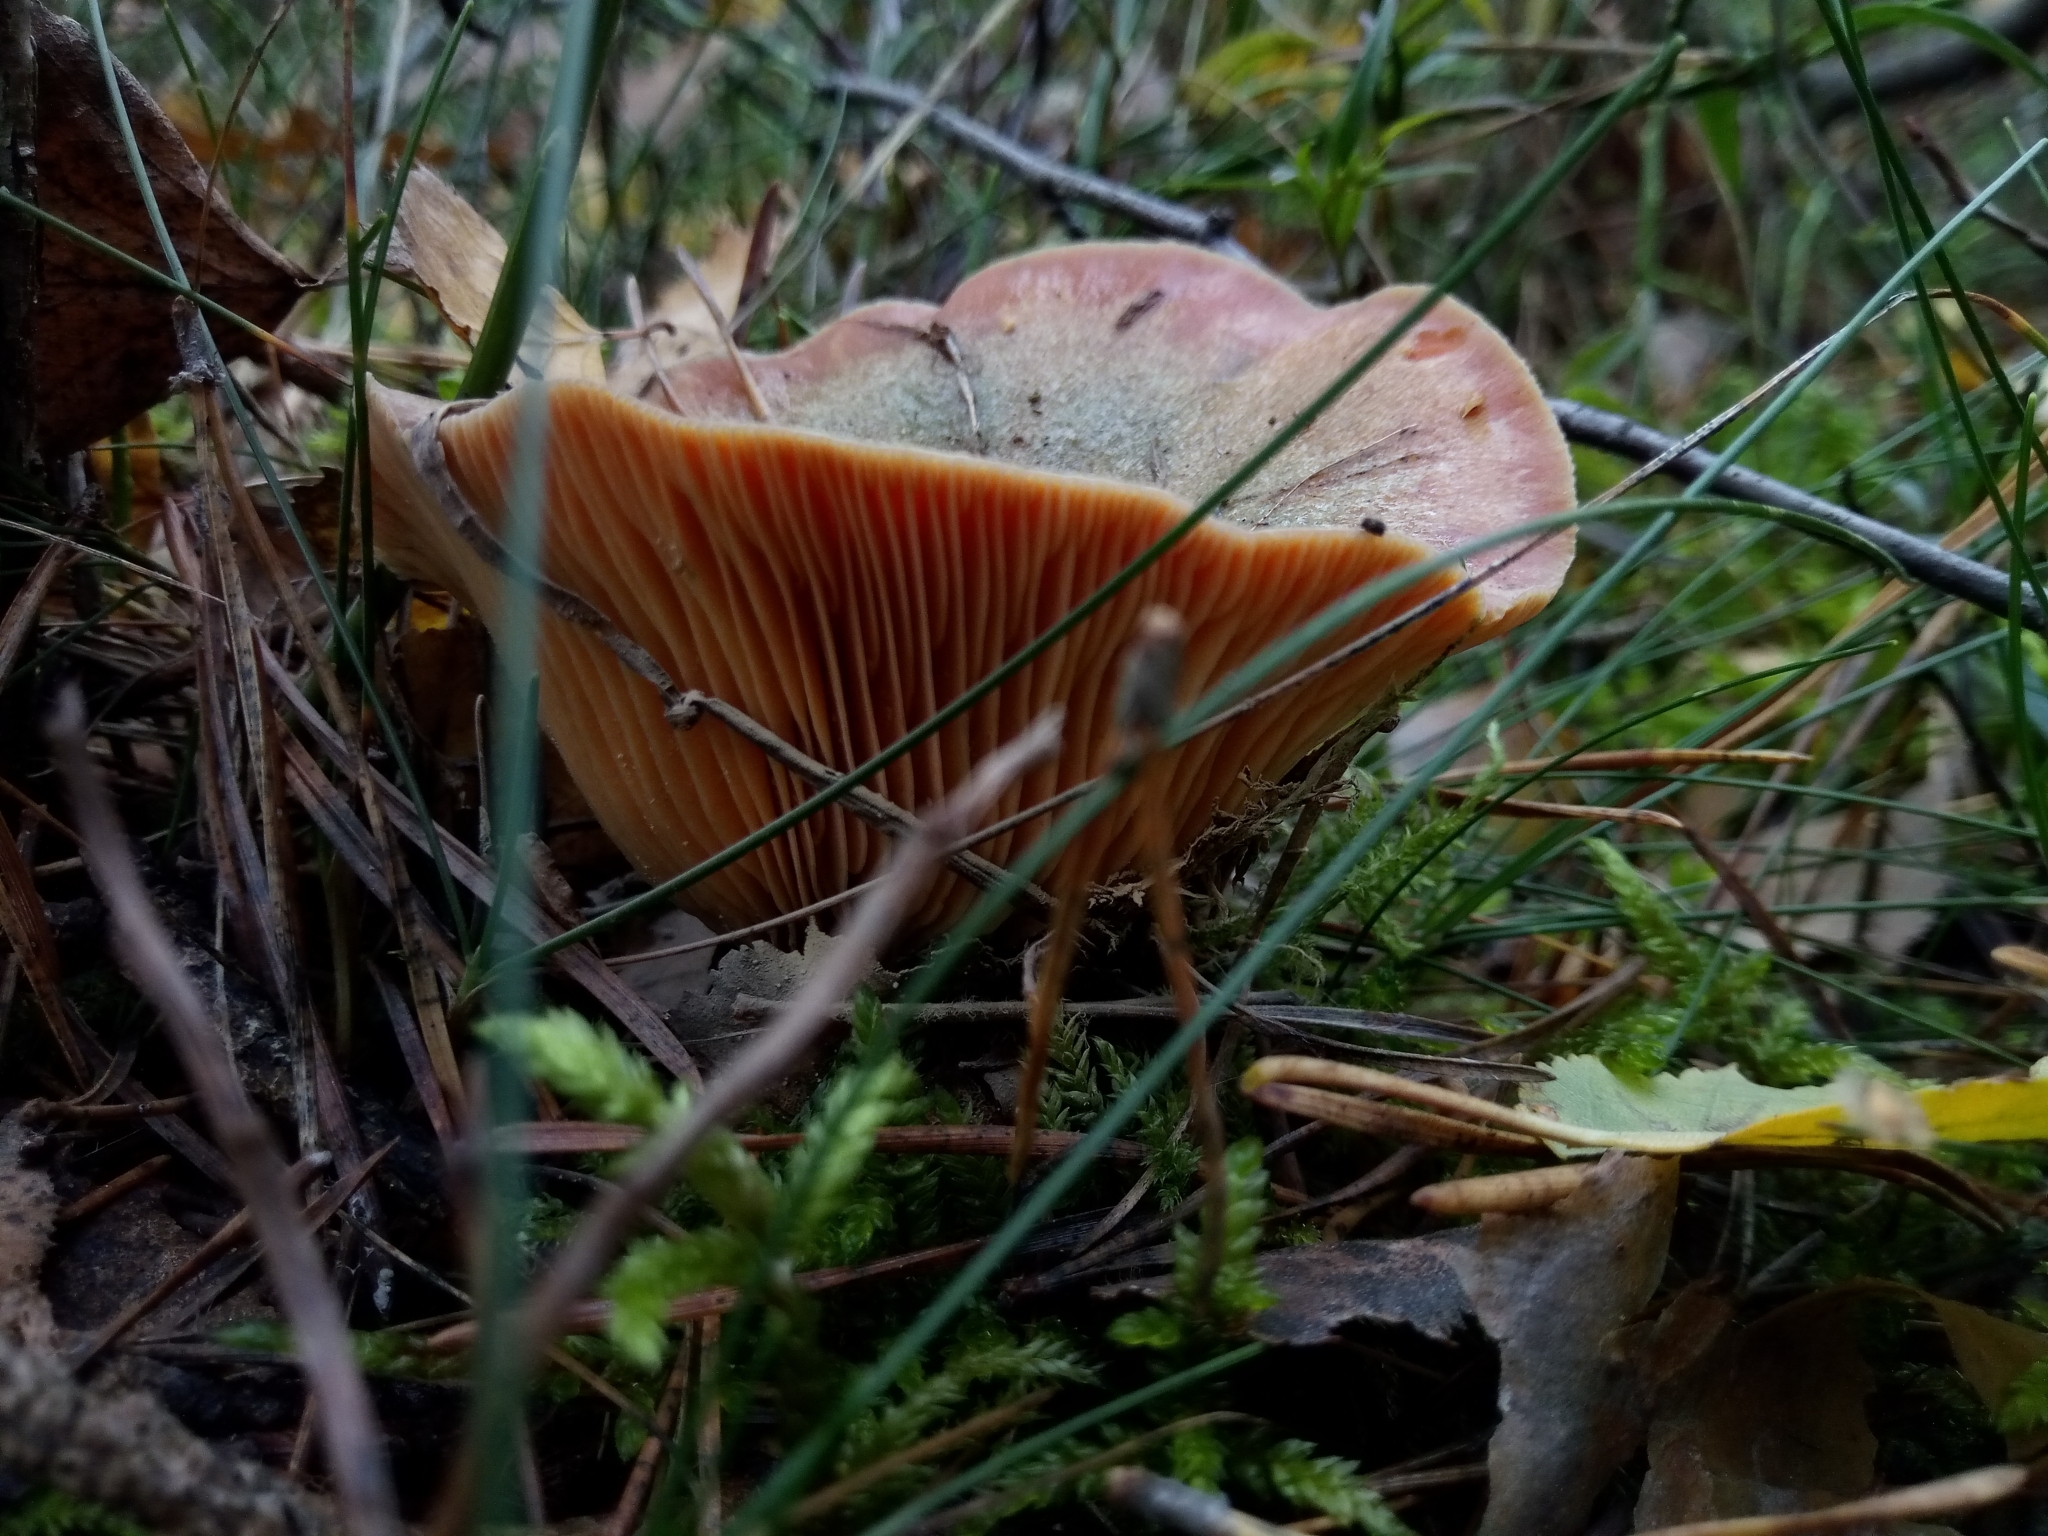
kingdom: Fungi
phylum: Basidiomycota
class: Agaricomycetes
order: Russulales
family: Russulaceae
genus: Lactarius
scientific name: Lactarius deterrimus
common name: False saffron milkcap
